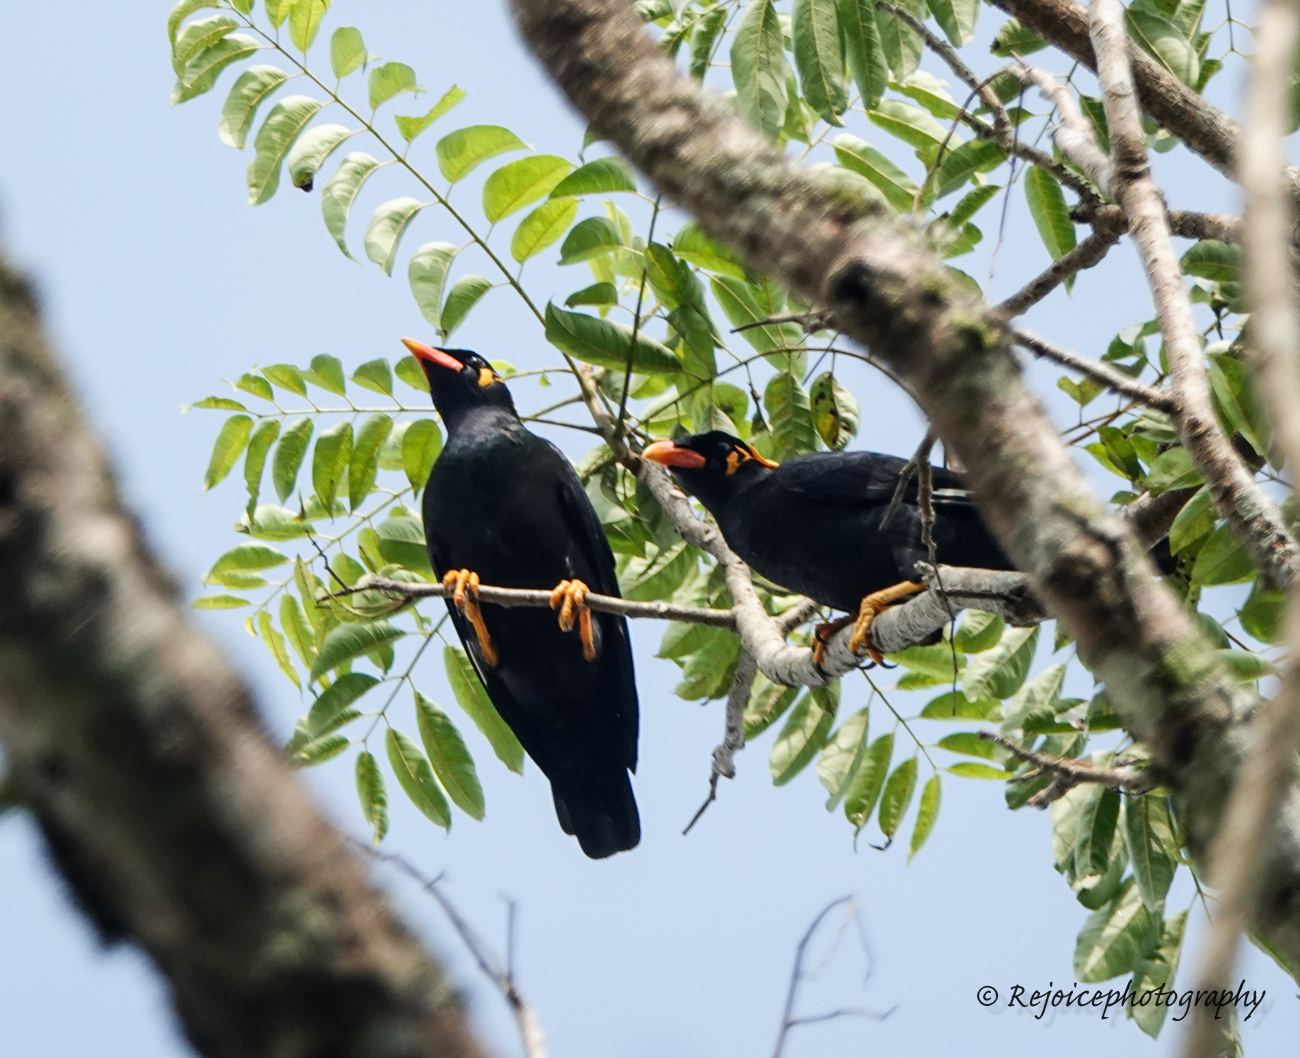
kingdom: Animalia
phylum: Chordata
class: Aves
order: Passeriformes
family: Sturnidae
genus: Gracula
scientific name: Gracula religiosa
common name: Common hill myna
